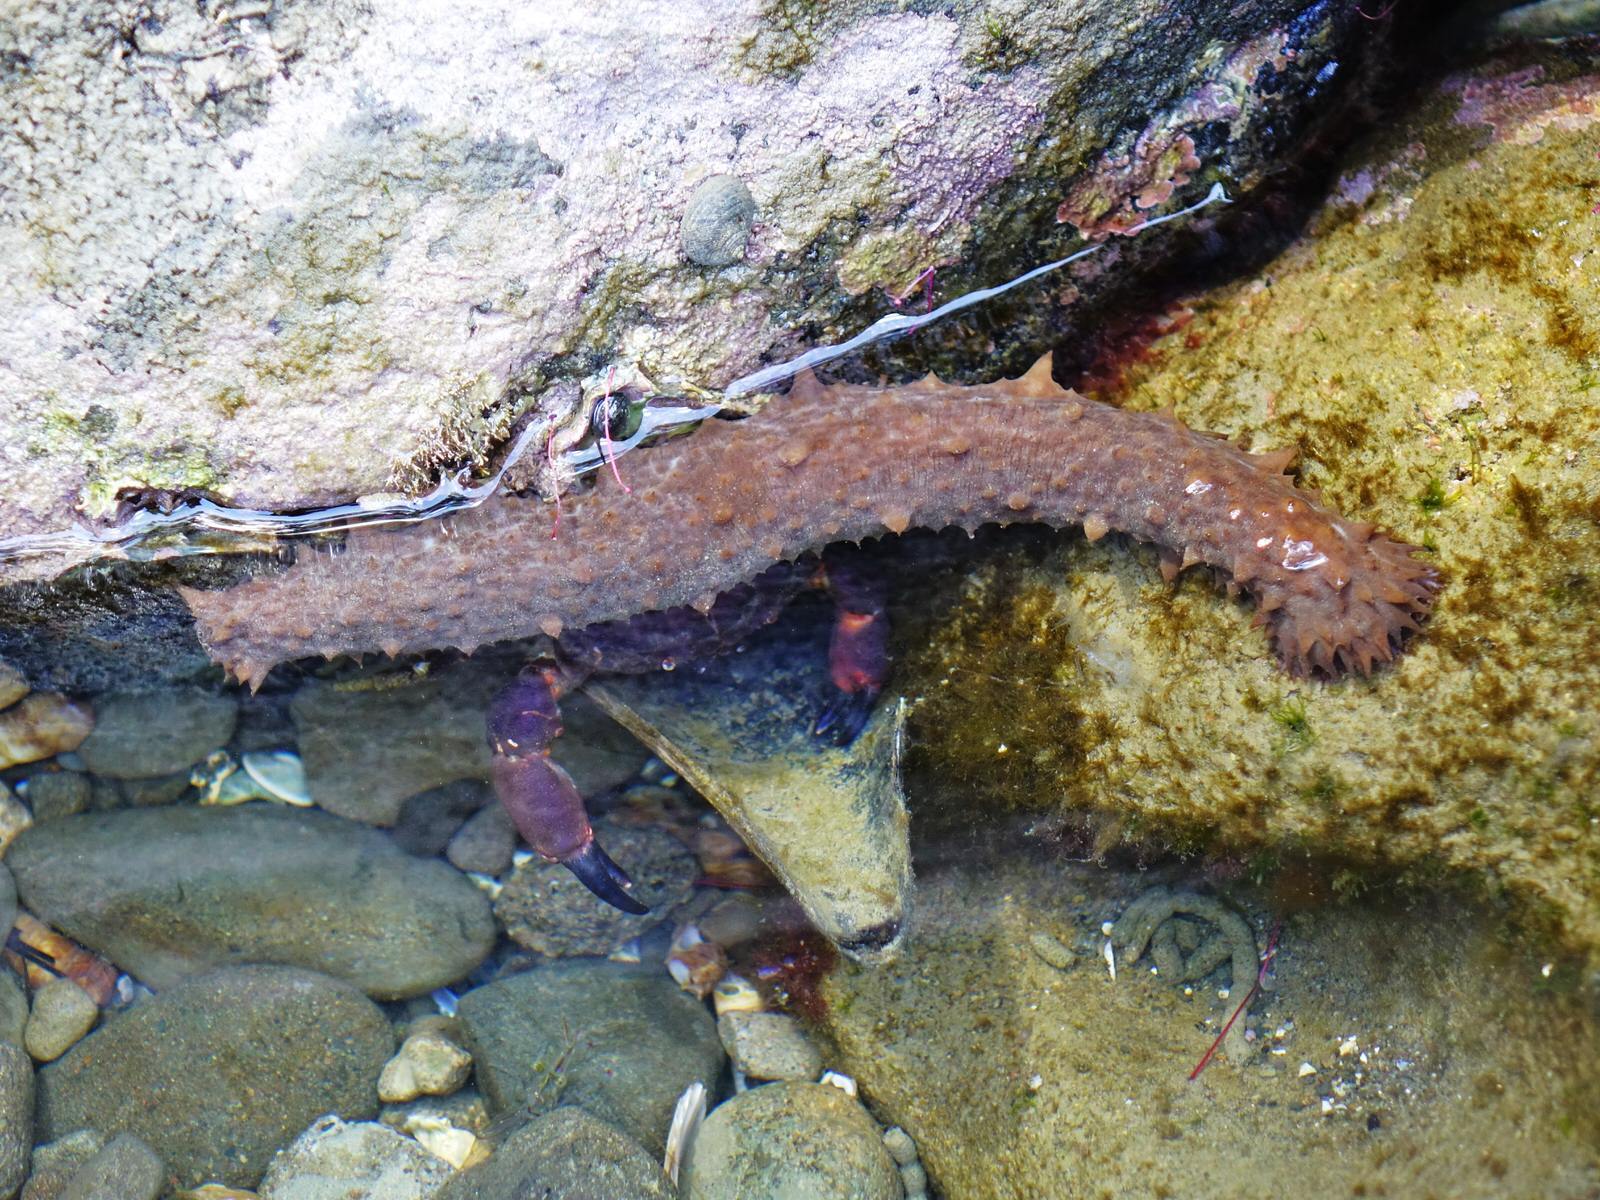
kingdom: Animalia
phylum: Echinodermata
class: Holothuroidea
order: Synallactida
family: Stichopodidae
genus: Australostichopus
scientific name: Australostichopus mollis
